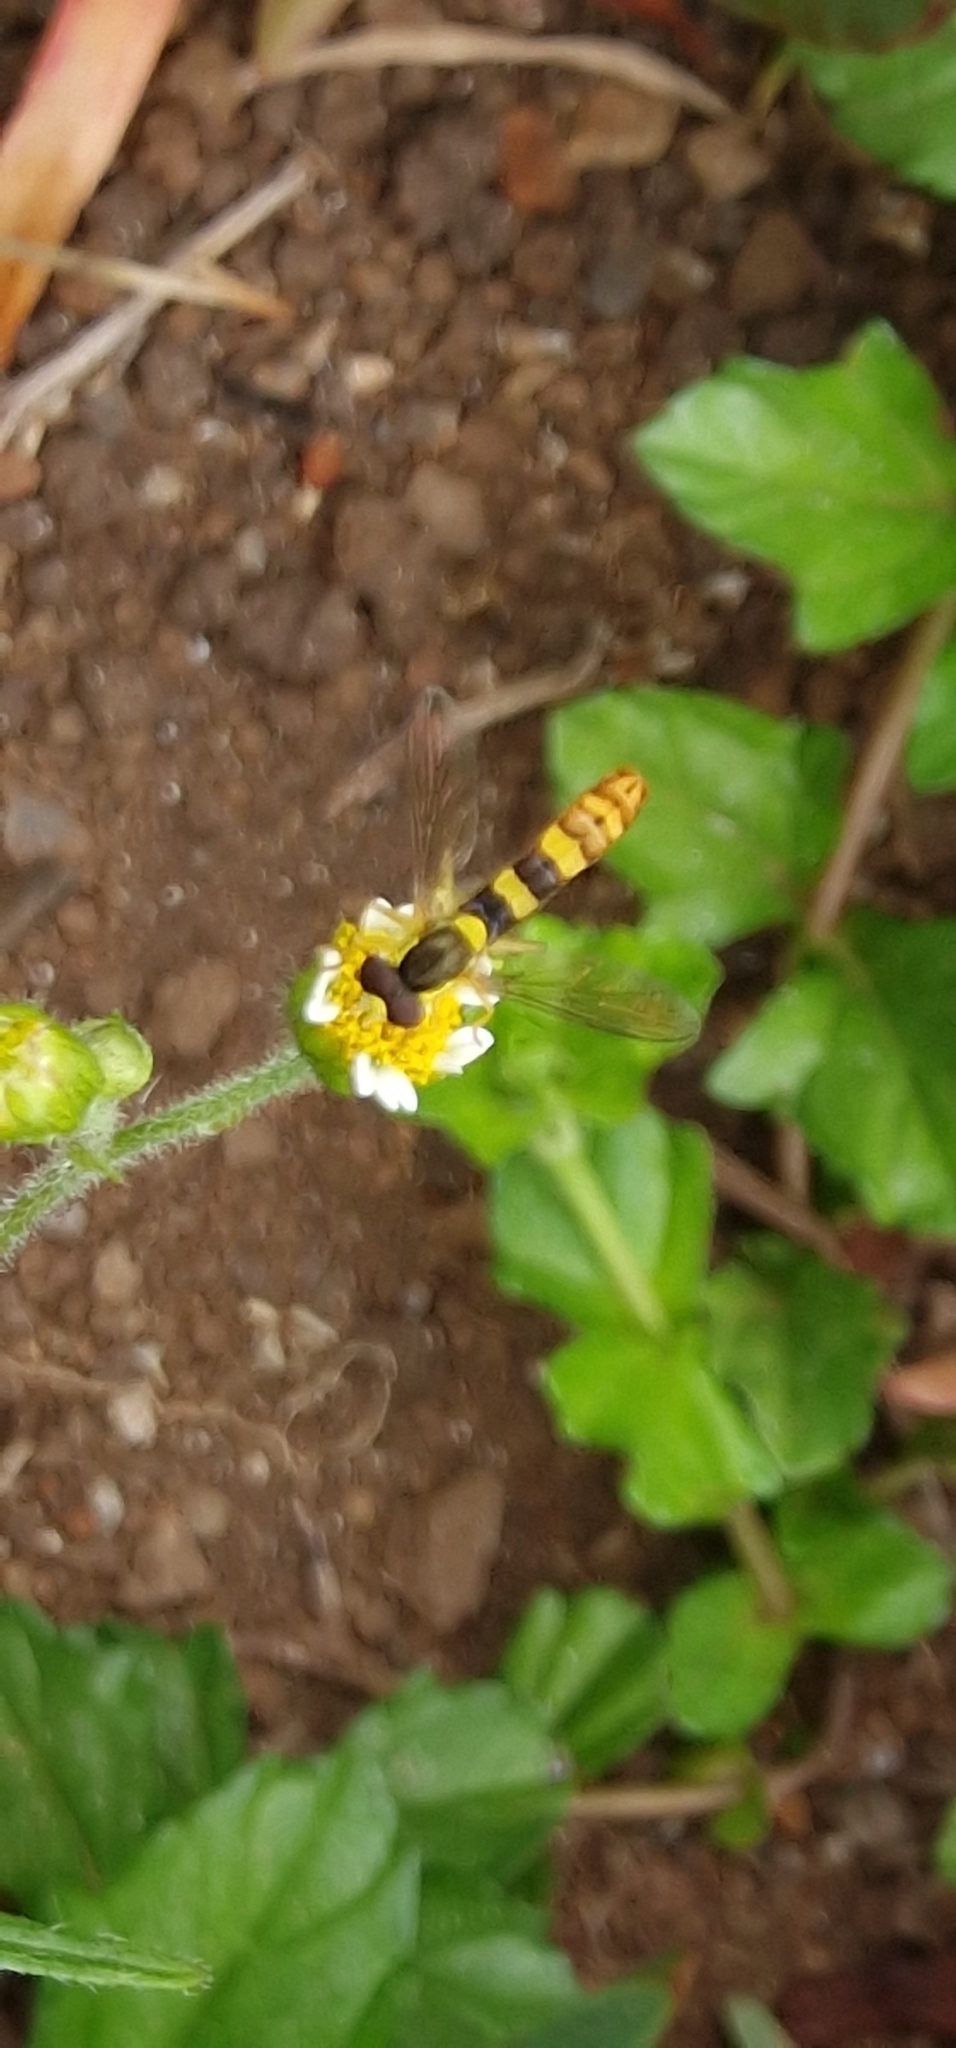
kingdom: Animalia
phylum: Arthropoda
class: Insecta
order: Diptera
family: Syrphidae
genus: Sphaerophoria
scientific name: Sphaerophoria scripta
